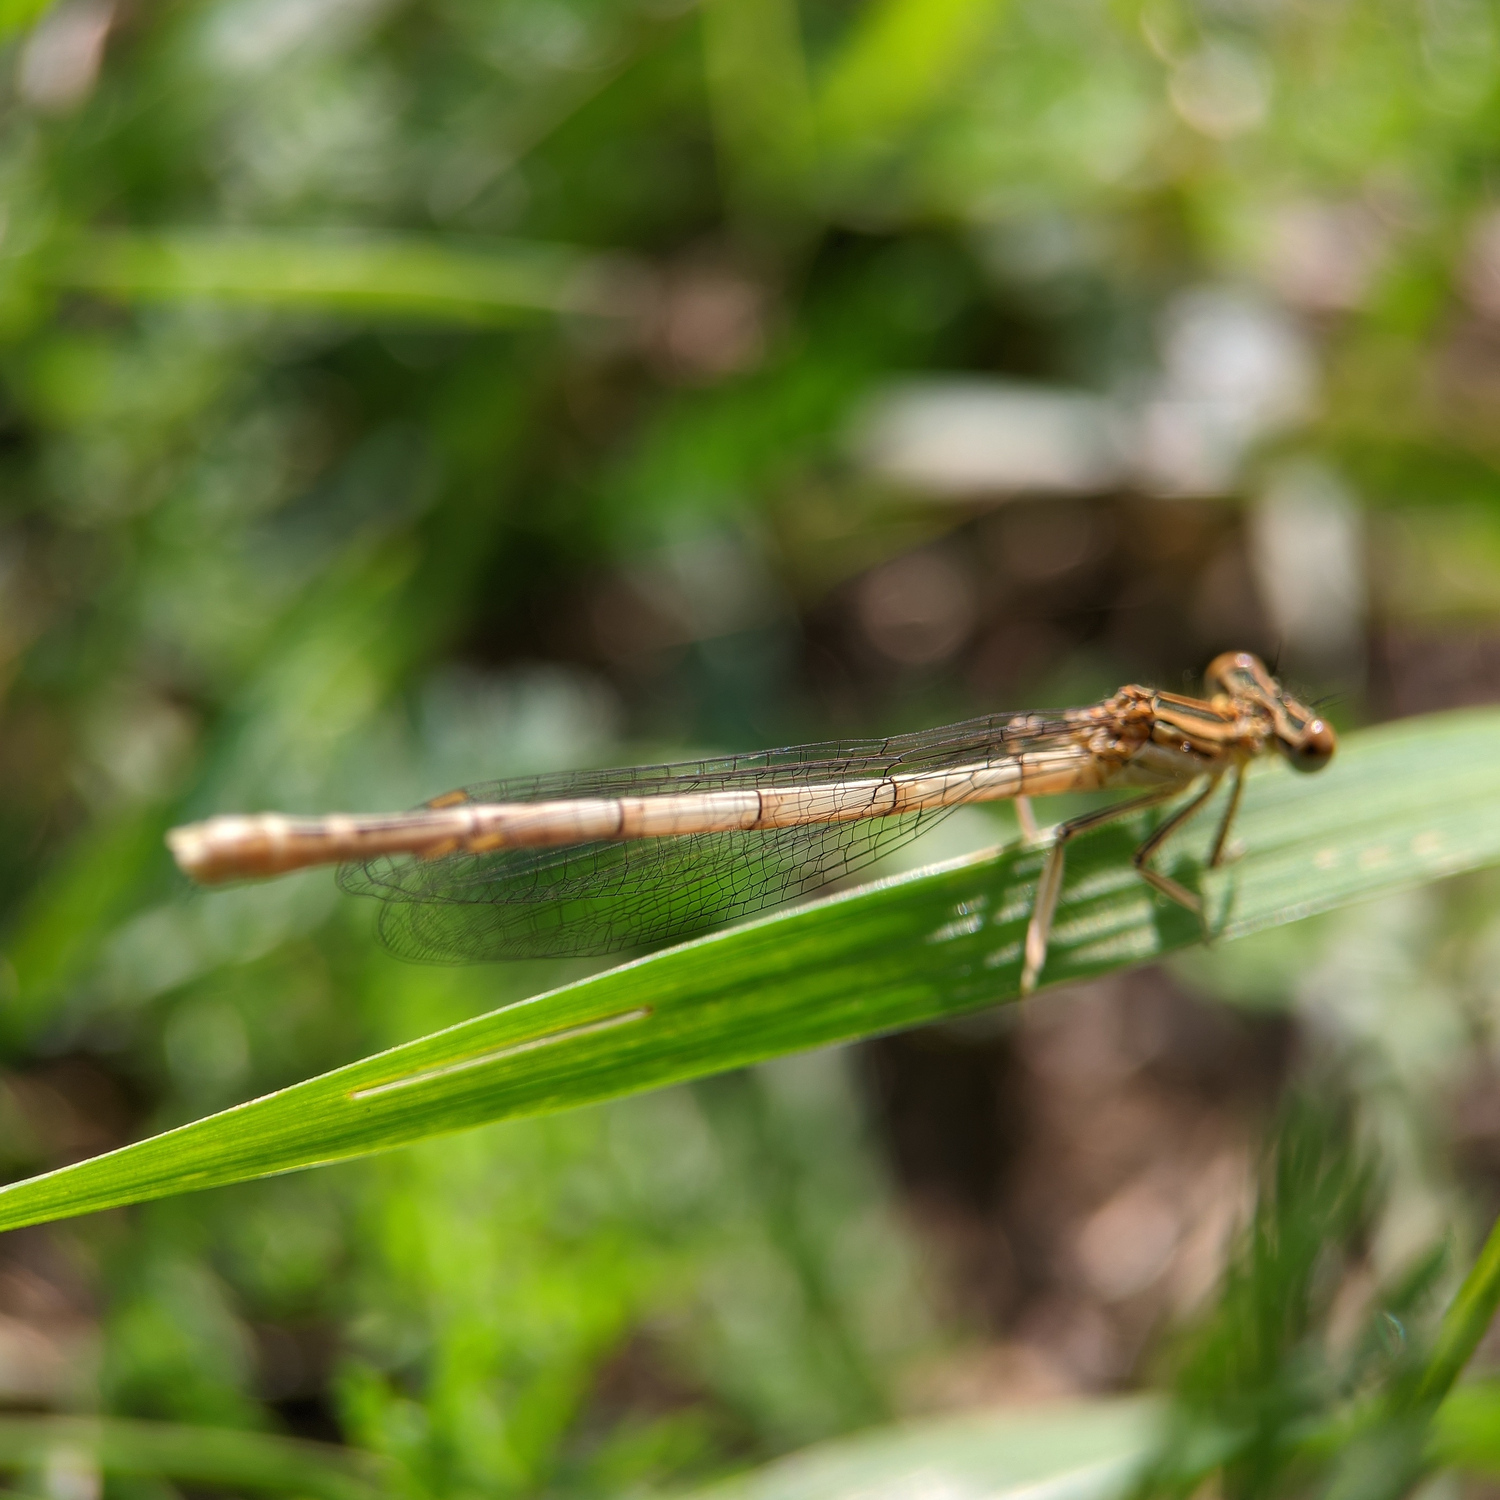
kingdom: Animalia
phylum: Arthropoda
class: Insecta
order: Odonata
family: Platycnemididae
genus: Platycnemis
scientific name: Platycnemis pennipes
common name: White-legged damselfly
